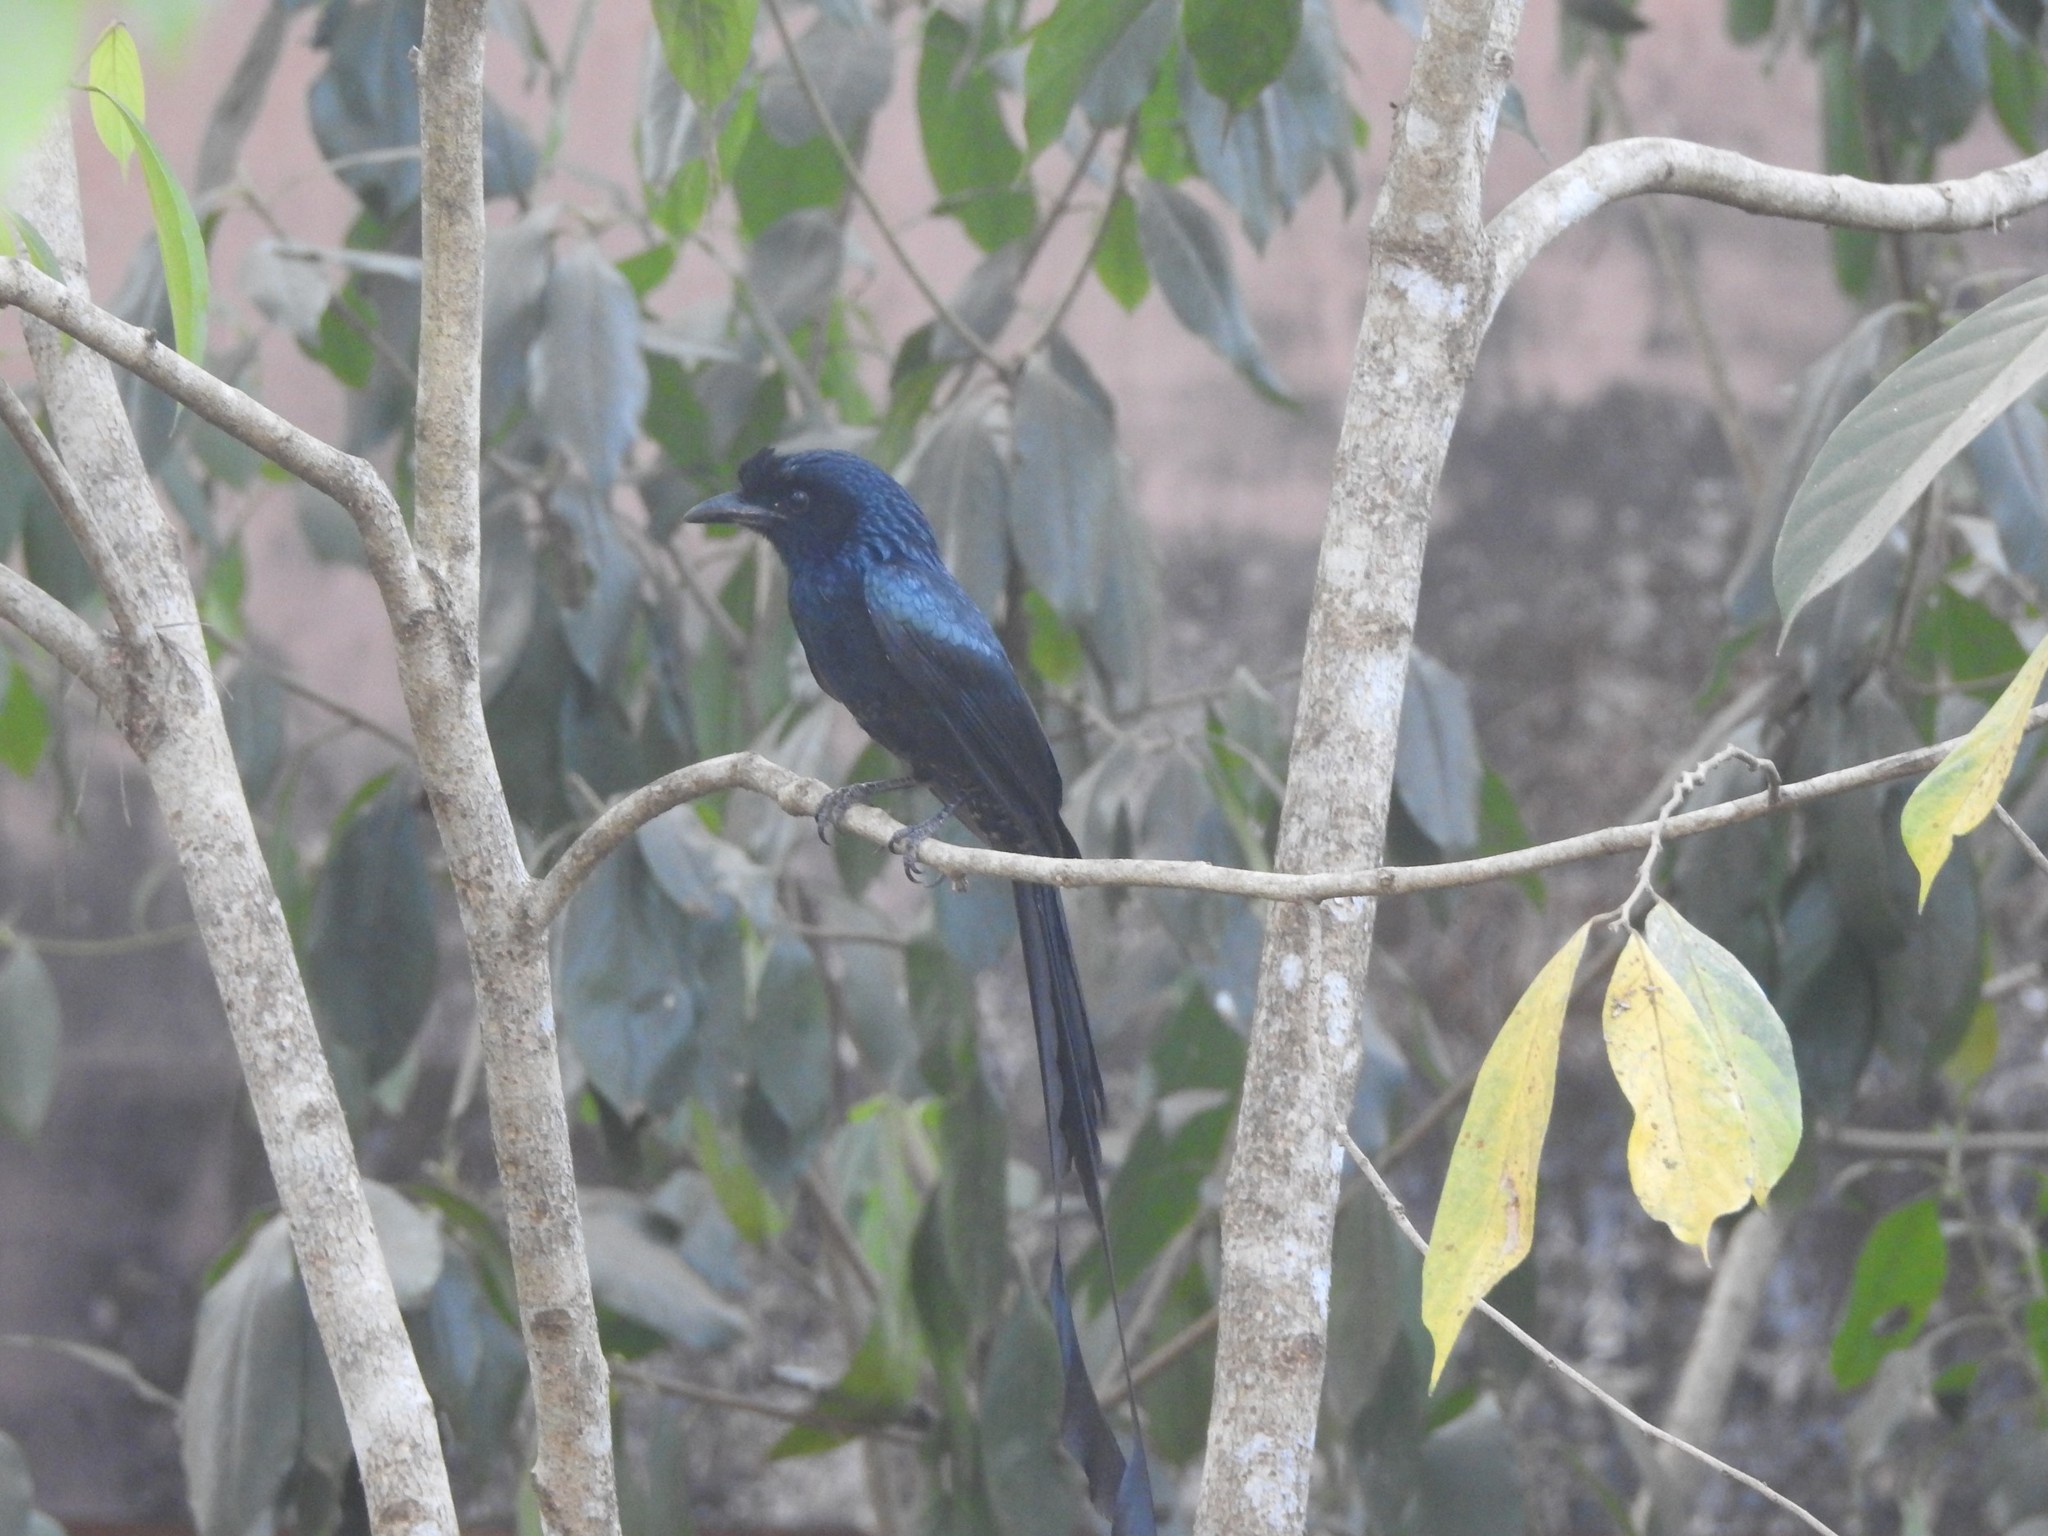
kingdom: Animalia
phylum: Chordata
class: Aves
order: Passeriformes
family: Dicruridae
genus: Dicrurus
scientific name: Dicrurus paradiseus
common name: Greater racket-tailed drongo
